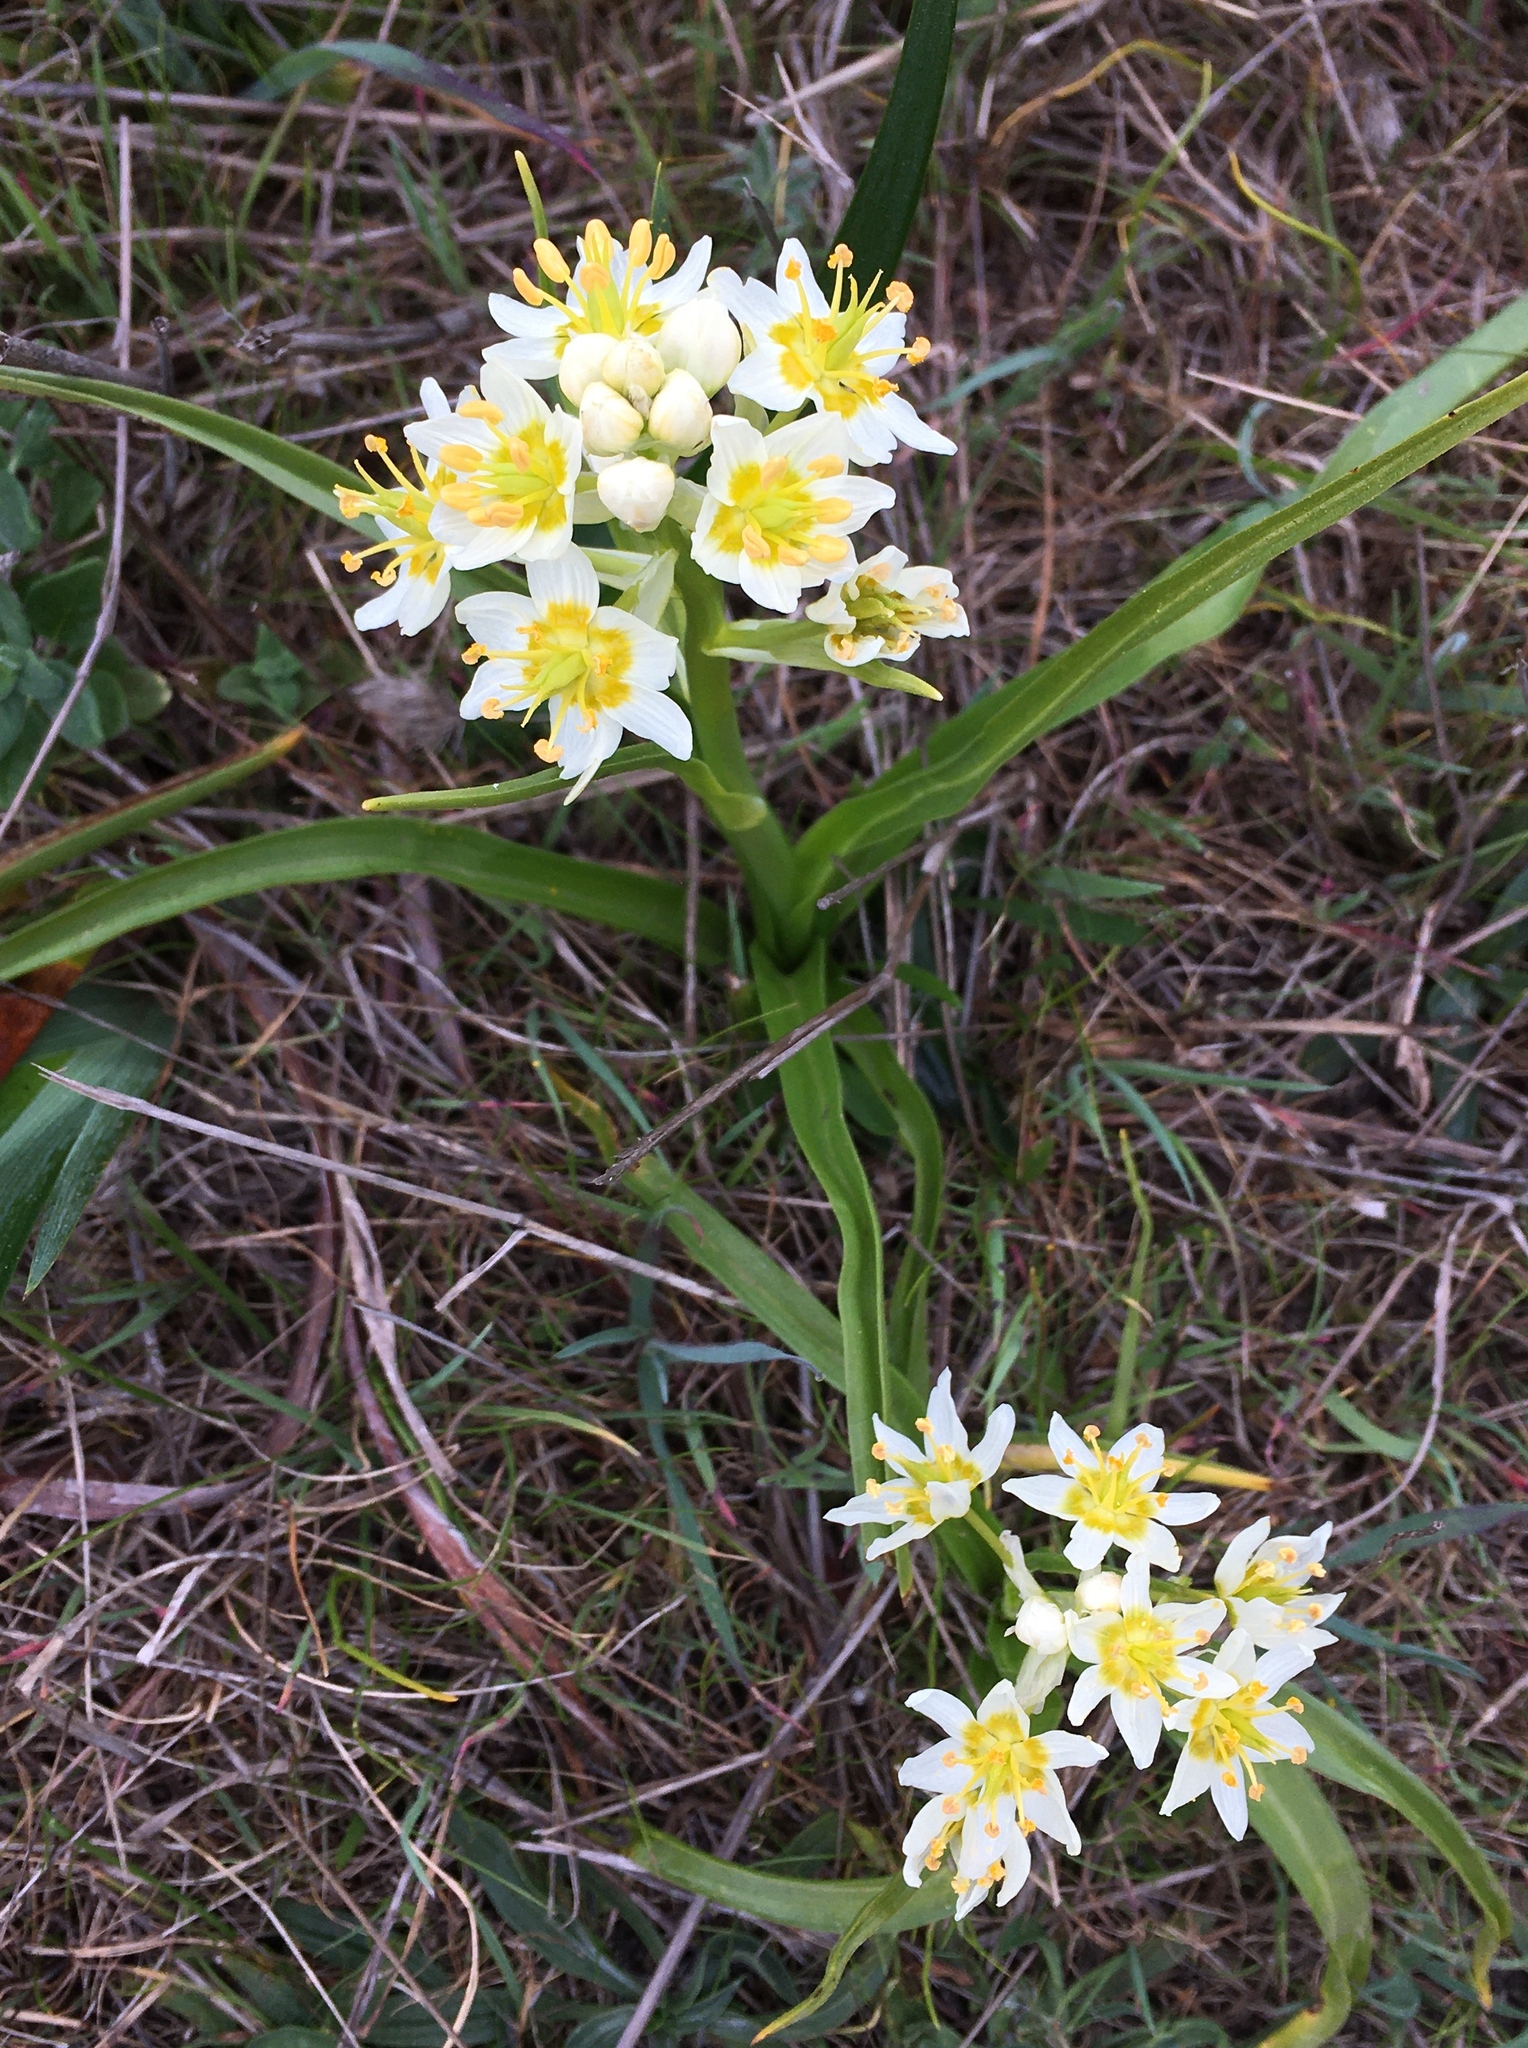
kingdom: Plantae
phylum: Tracheophyta
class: Liliopsida
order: Liliales
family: Melanthiaceae
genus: Toxicoscordion
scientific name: Toxicoscordion fremontii
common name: Fremont's death camas
